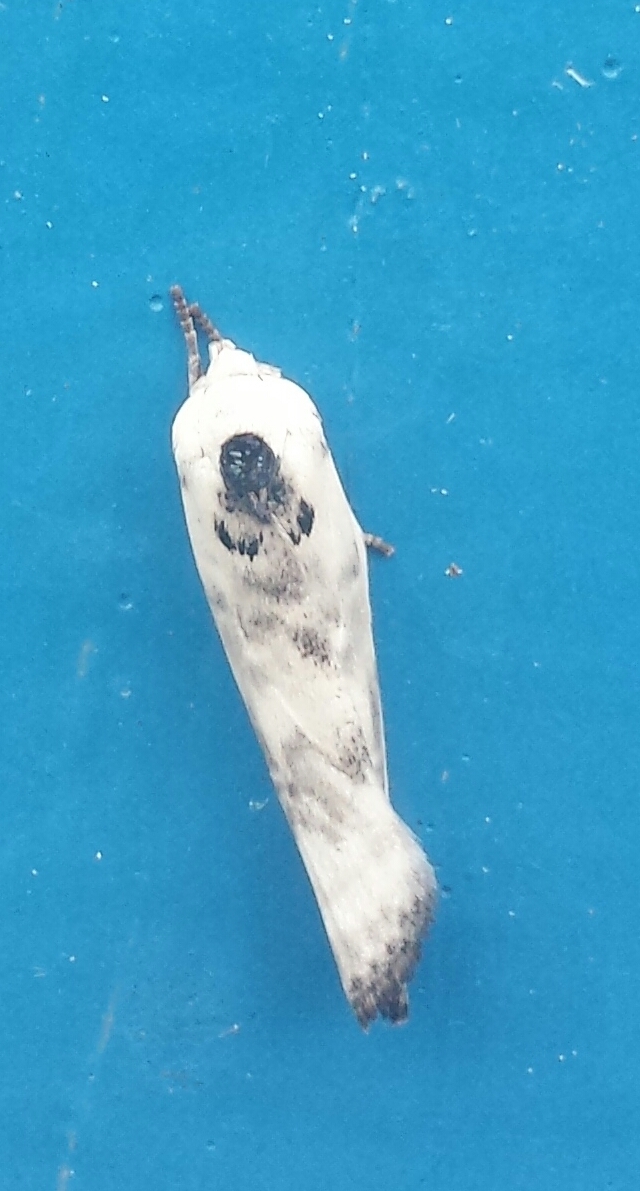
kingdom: Animalia
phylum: Arthropoda
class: Insecta
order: Lepidoptera
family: Depressariidae
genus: Antaeotricha
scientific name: Antaeotricha schlaegeri
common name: Schlaeger's fruitworm moth
